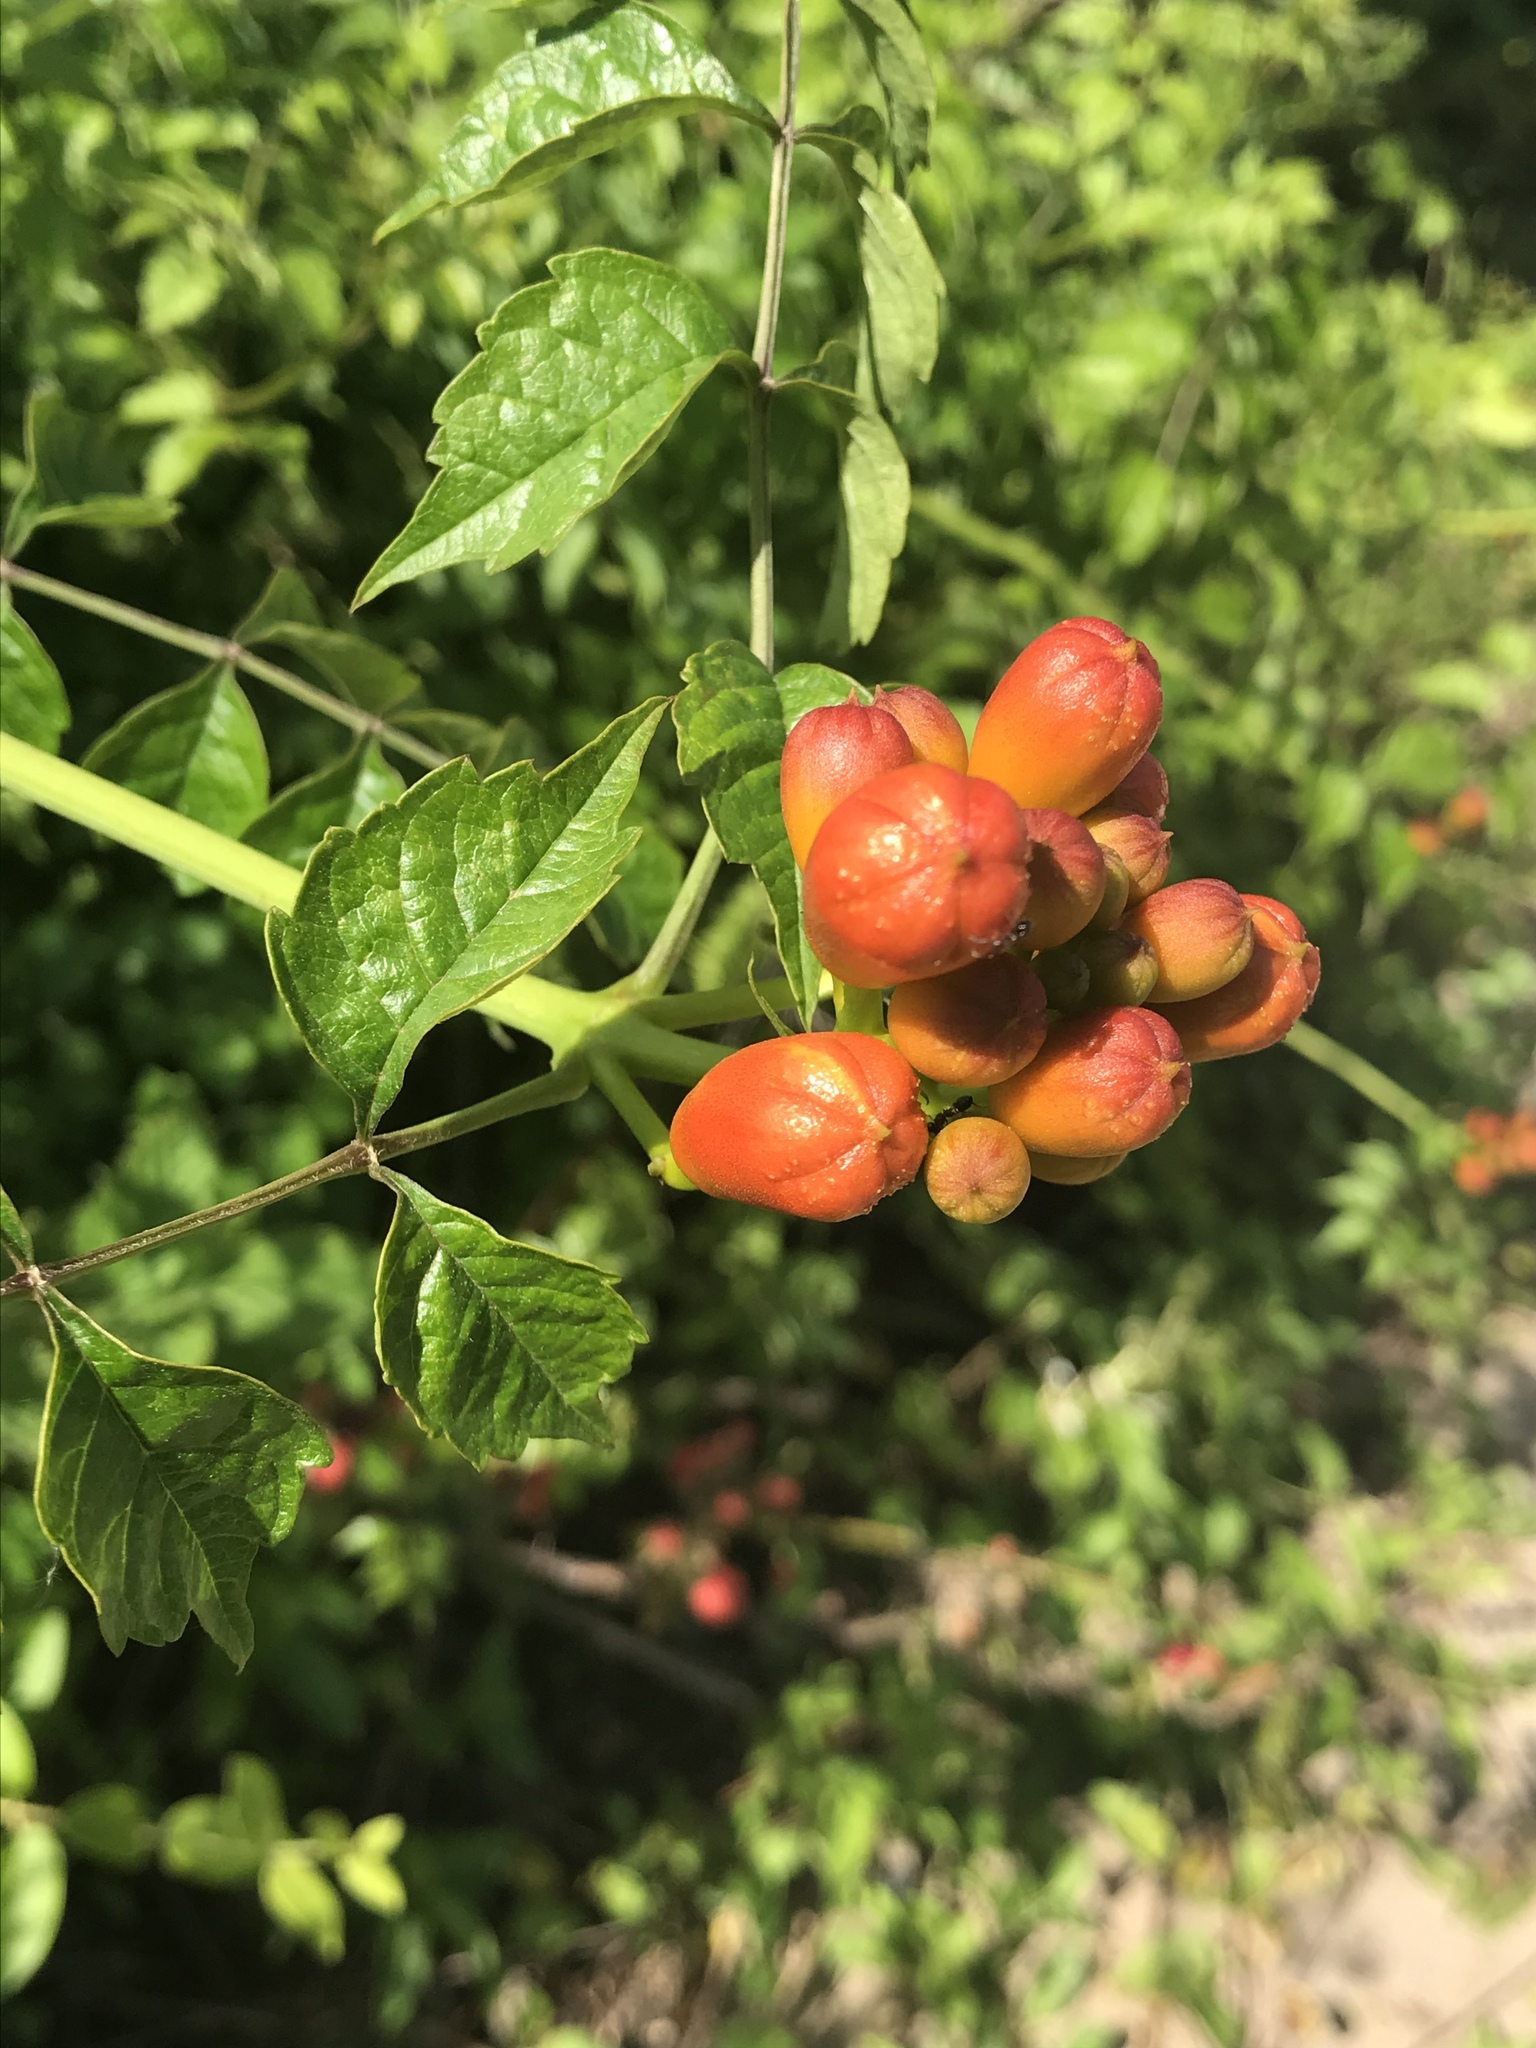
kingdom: Plantae
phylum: Tracheophyta
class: Magnoliopsida
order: Lamiales
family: Bignoniaceae
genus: Campsis
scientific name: Campsis radicans
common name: Trumpet-creeper
